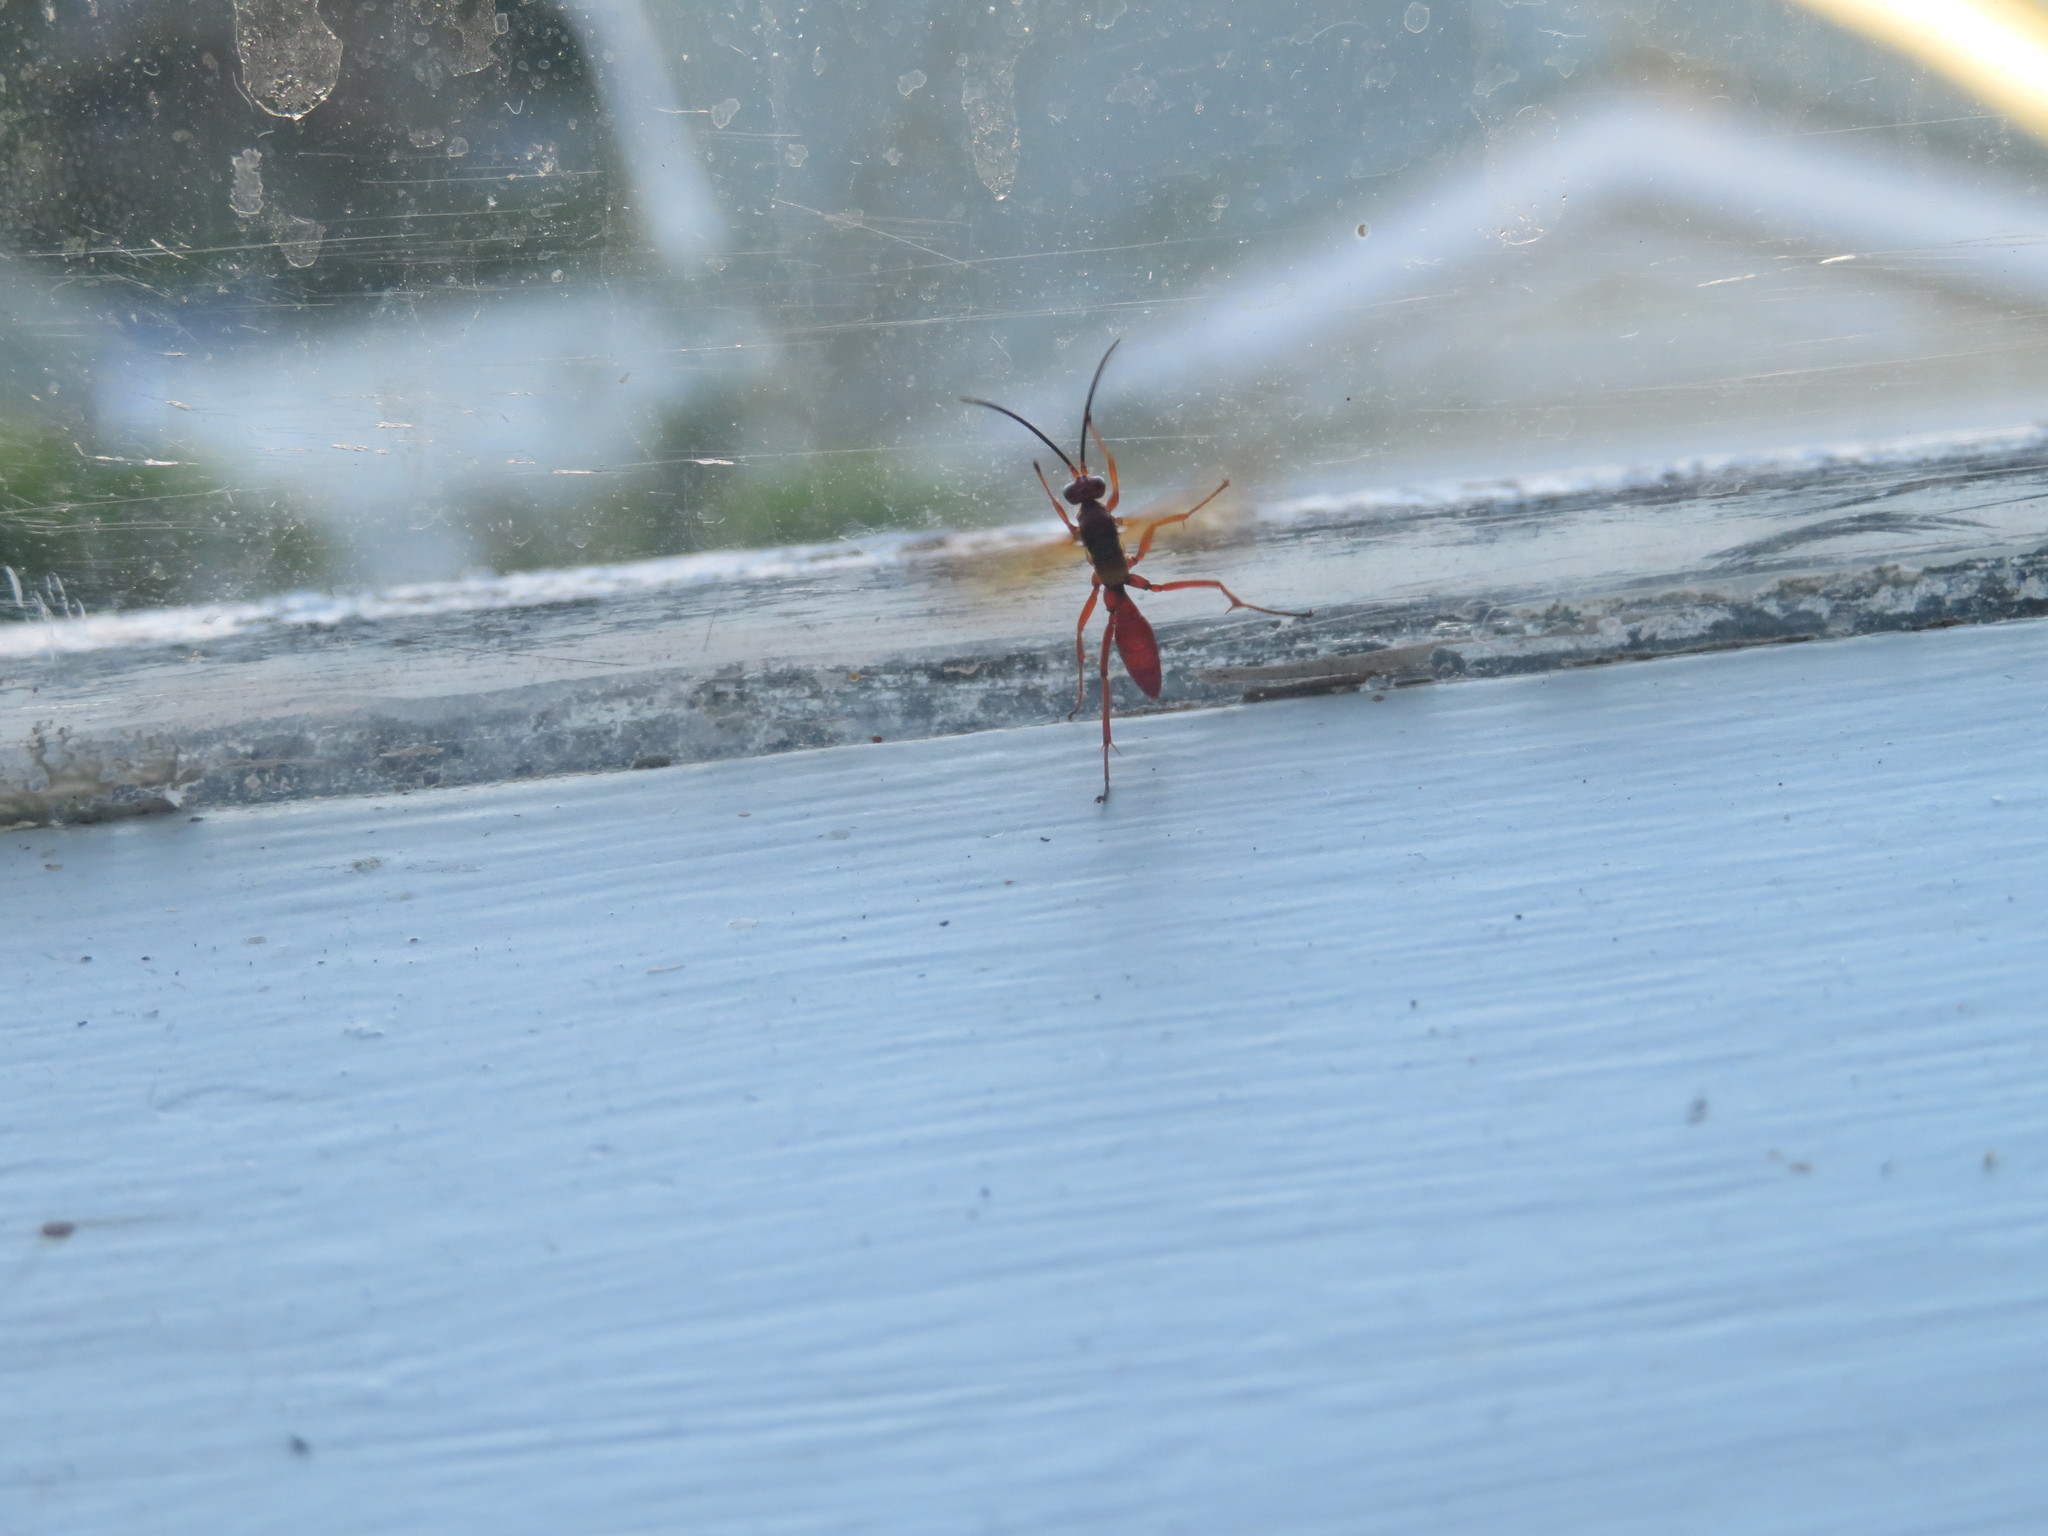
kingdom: Animalia
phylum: Arthropoda
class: Insecta
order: Hymenoptera
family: Pompilidae
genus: Sphictostethus
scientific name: Sphictostethus nitidus
